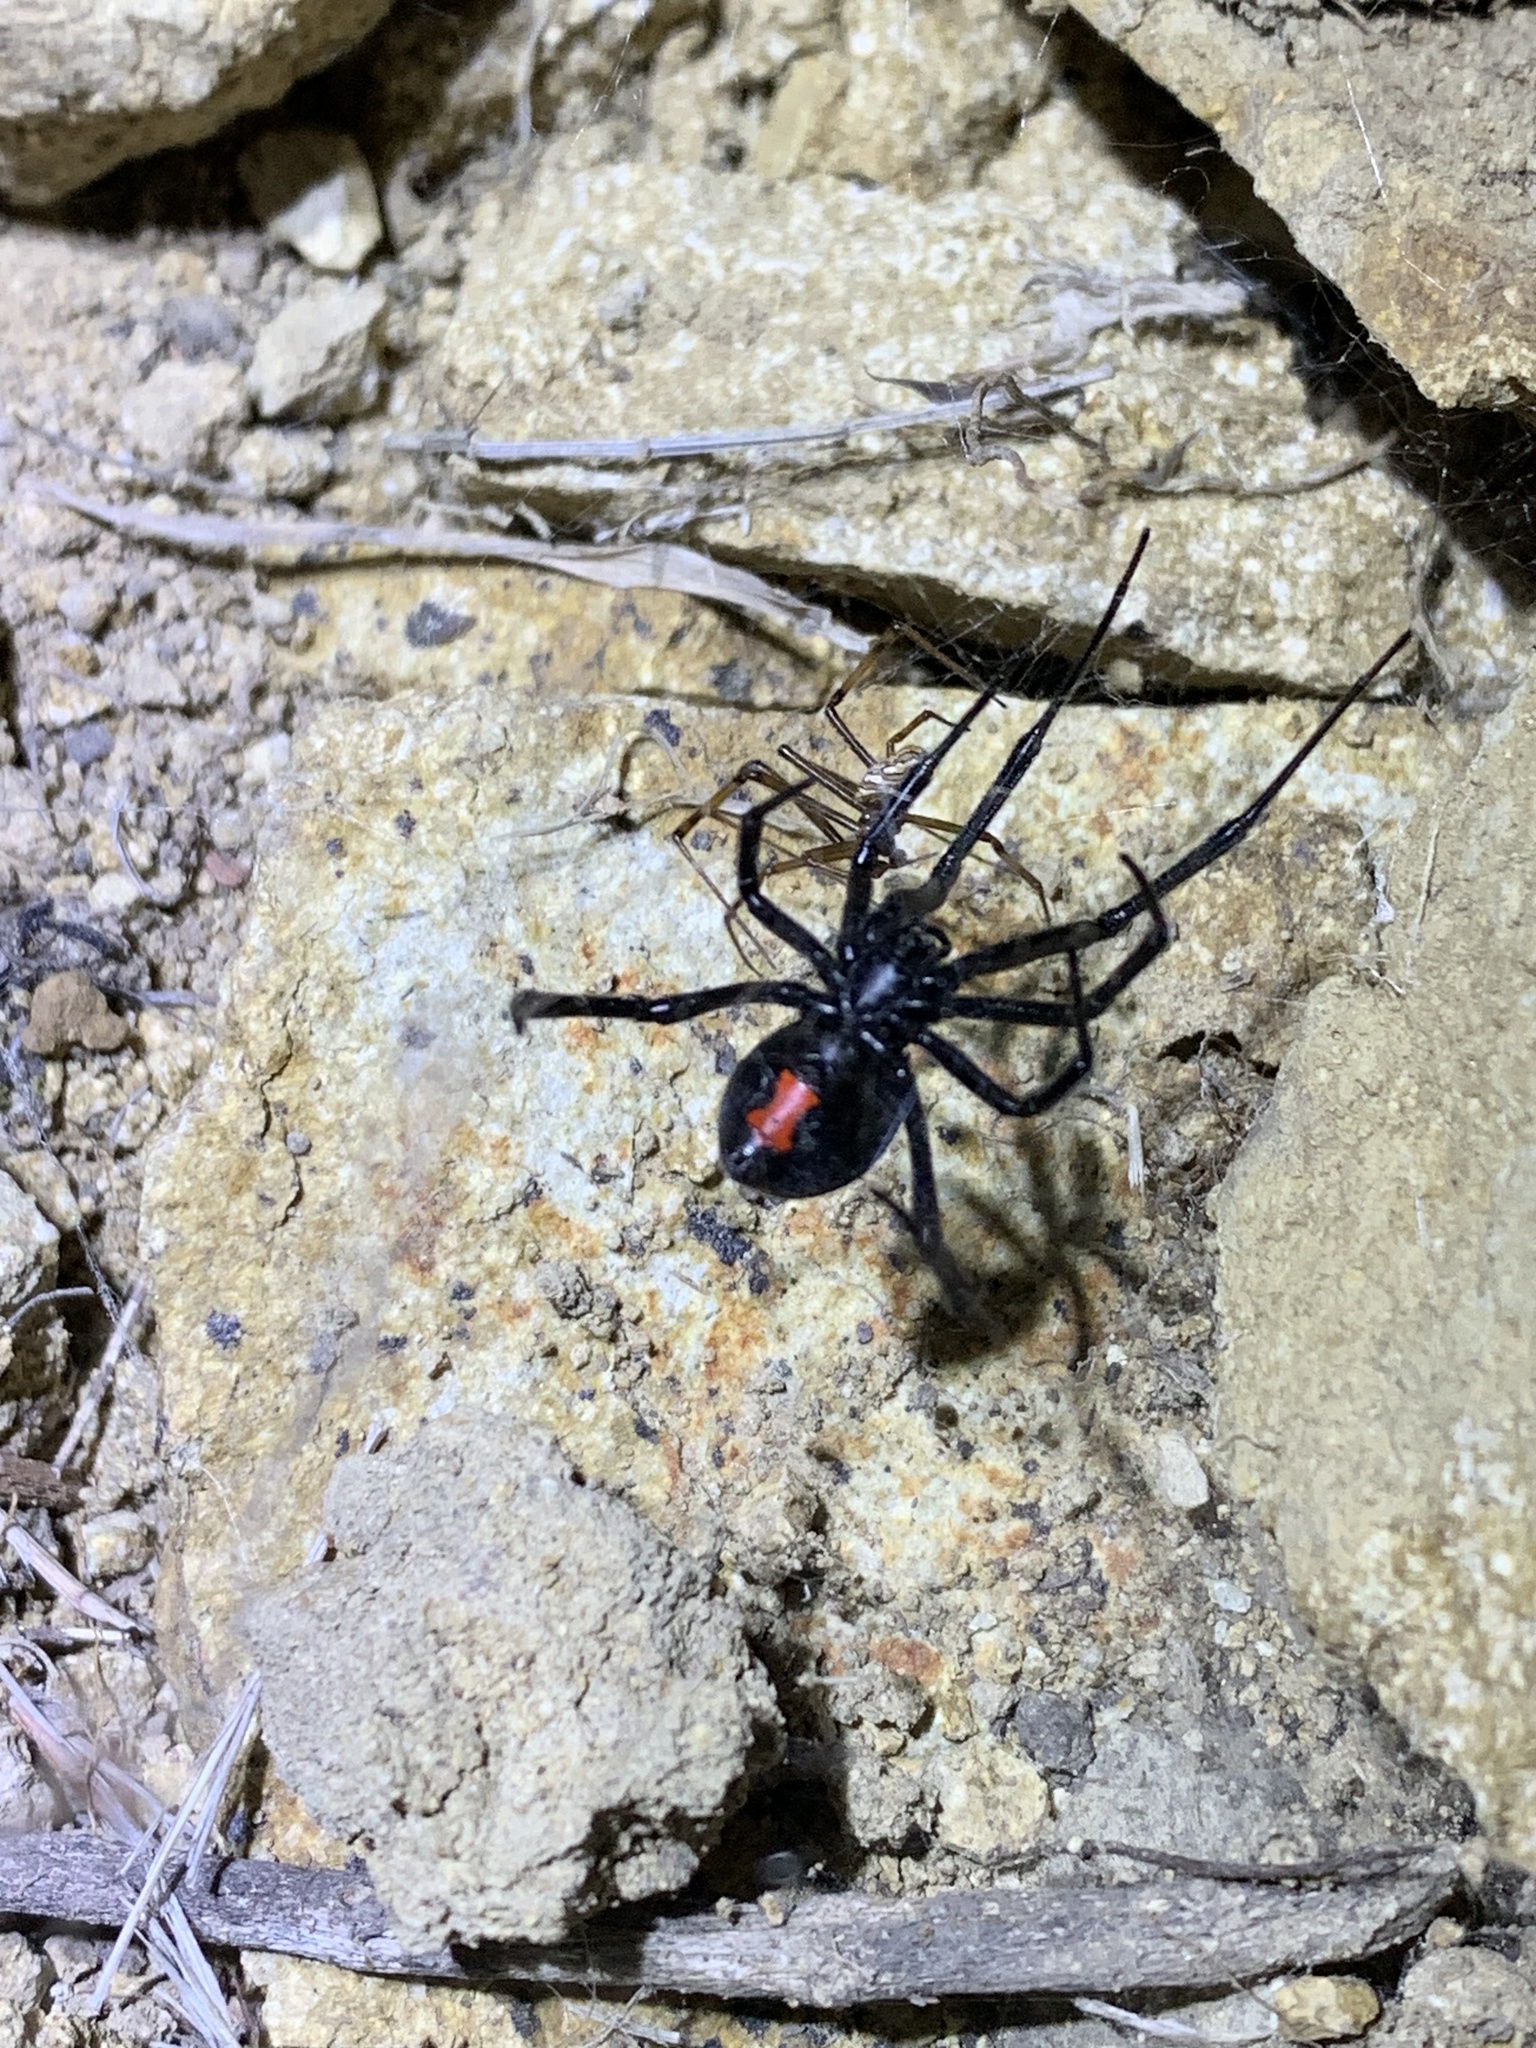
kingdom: Animalia
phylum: Arthropoda
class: Arachnida
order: Araneae
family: Theridiidae
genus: Latrodectus
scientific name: Latrodectus hesperus
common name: Western black widow
